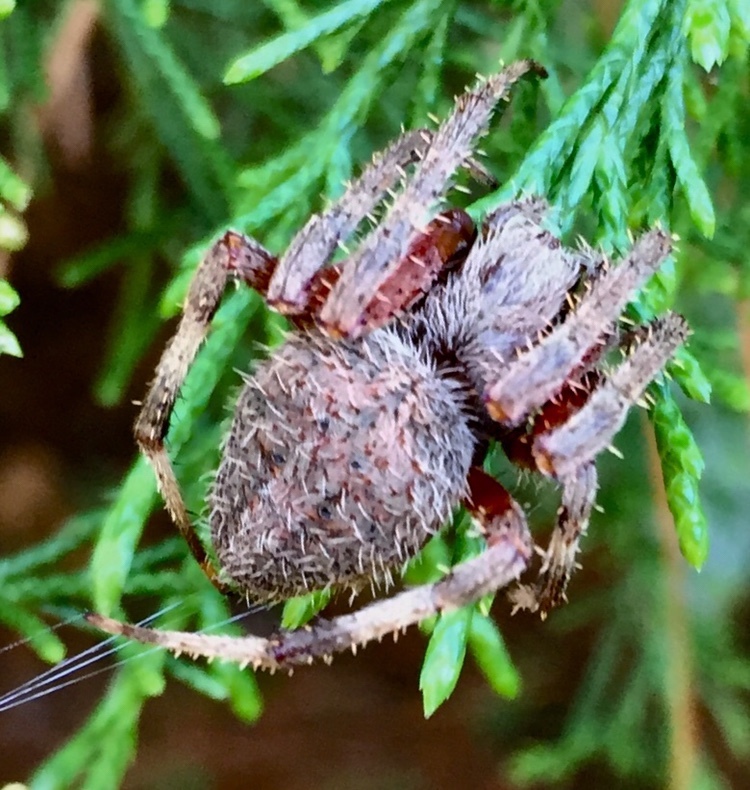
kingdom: Animalia
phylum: Arthropoda
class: Arachnida
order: Araneae
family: Araneidae
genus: Neoscona
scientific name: Neoscona crucifera
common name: Spotted orbweaver
